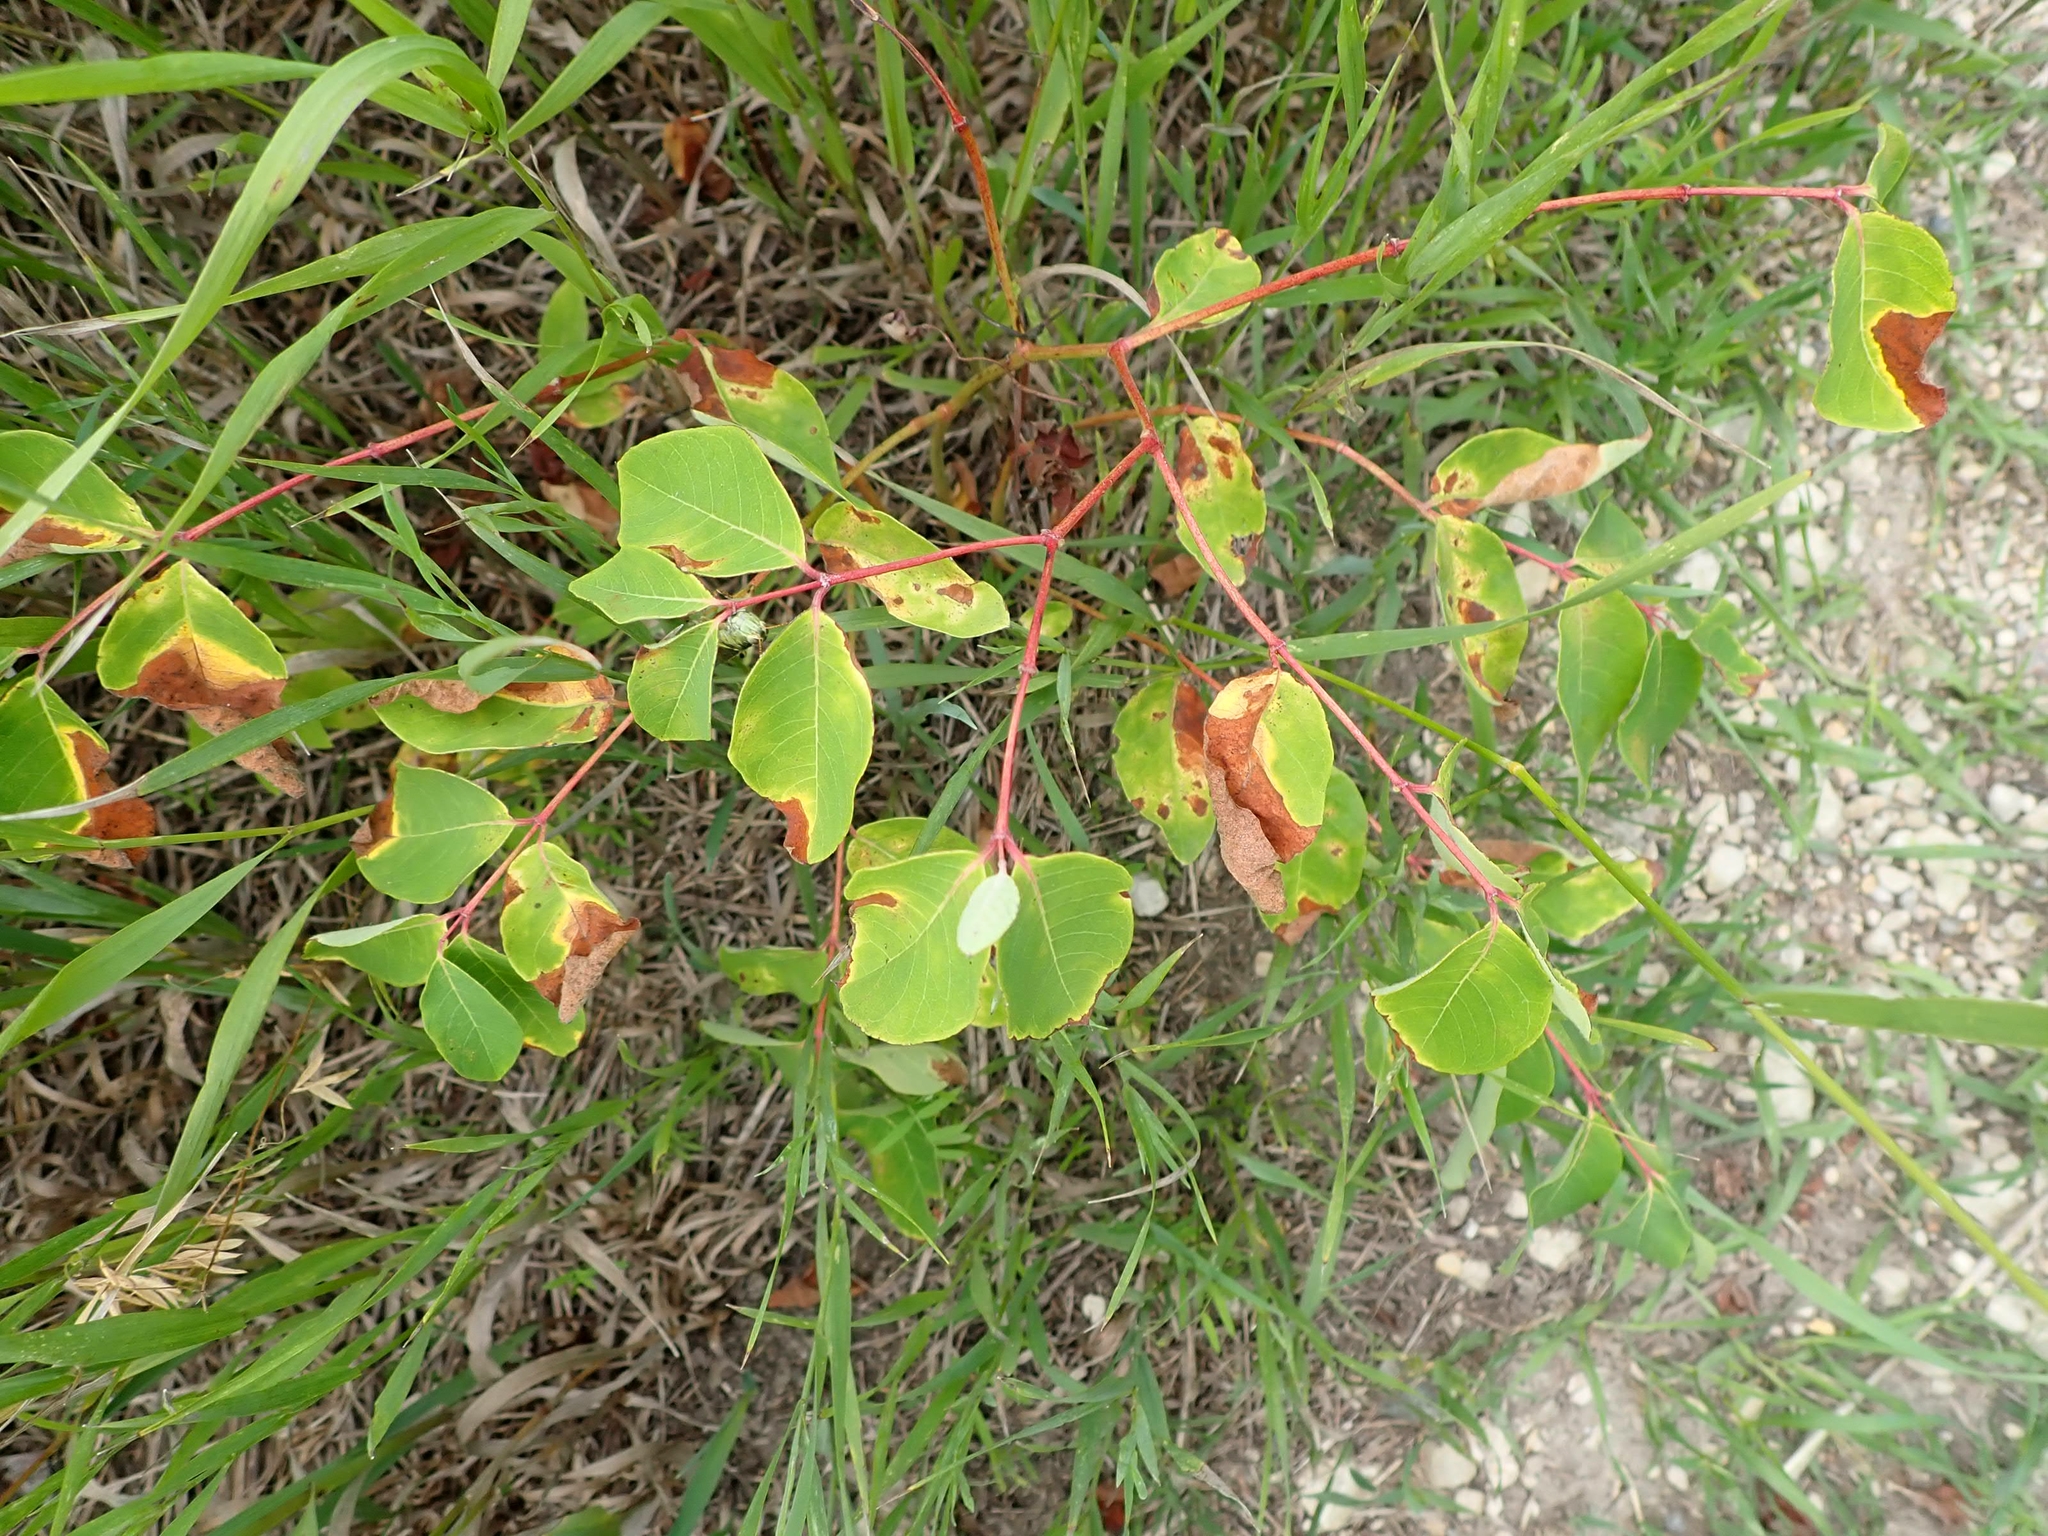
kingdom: Plantae
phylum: Tracheophyta
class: Magnoliopsida
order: Gentianales
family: Apocynaceae
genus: Apocynum
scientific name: Apocynum androsaemifolium
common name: Spreading dogbane
